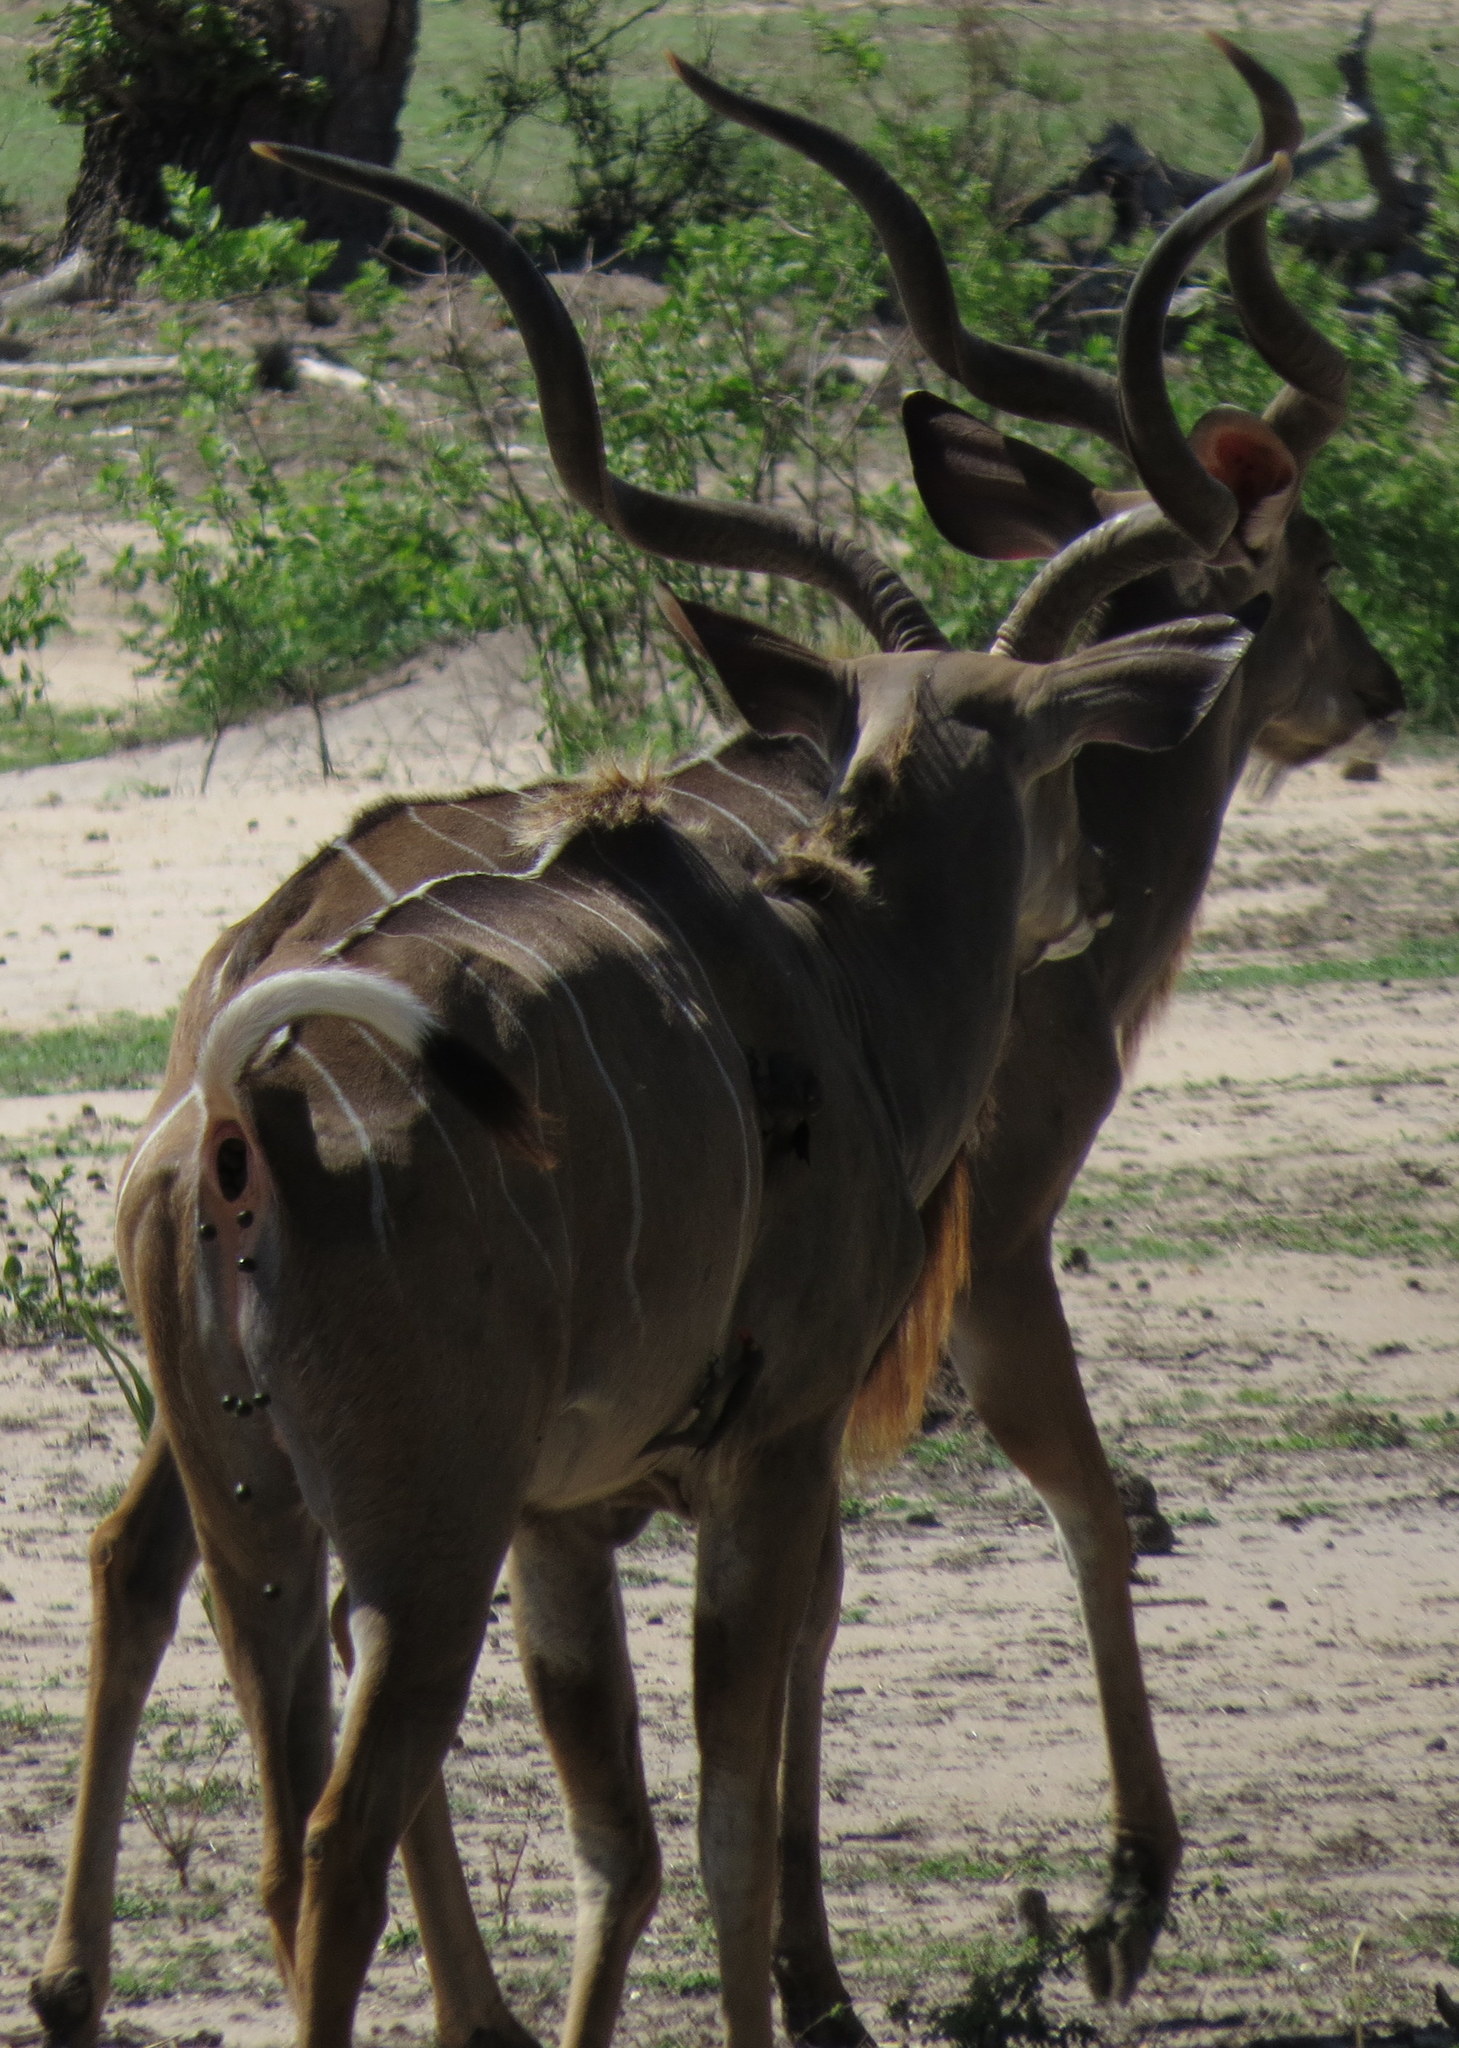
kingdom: Animalia
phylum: Chordata
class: Mammalia
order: Artiodactyla
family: Bovidae
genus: Tragelaphus
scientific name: Tragelaphus strepsiceros
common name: Greater kudu
